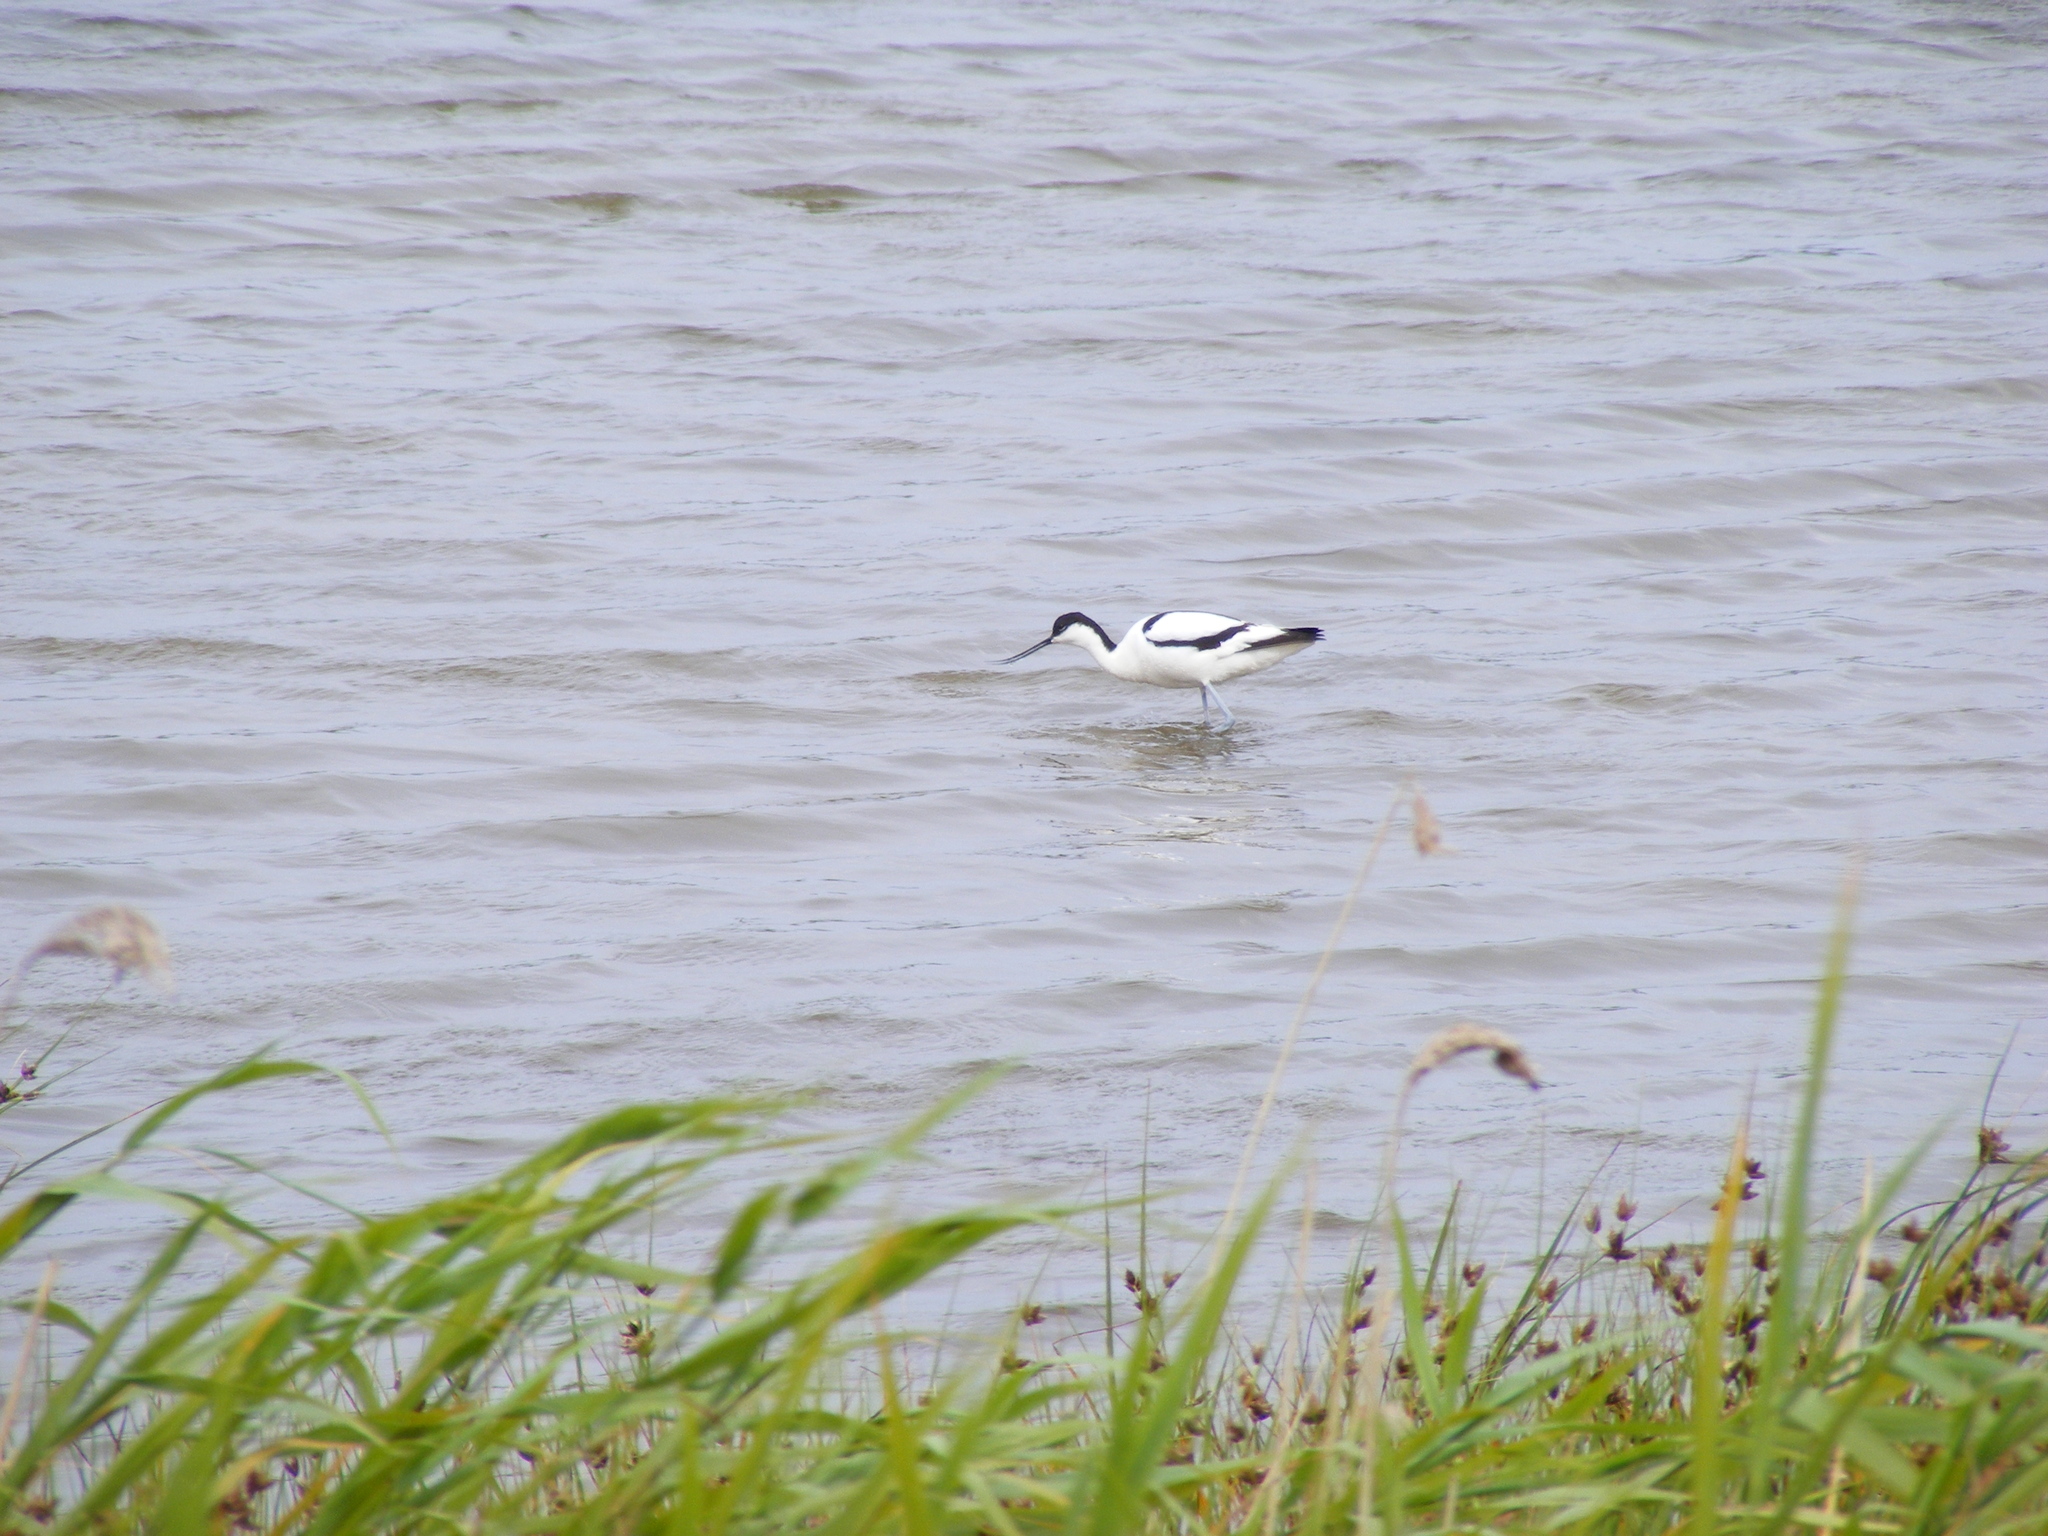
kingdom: Animalia
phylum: Chordata
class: Aves
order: Charadriiformes
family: Recurvirostridae
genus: Recurvirostra
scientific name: Recurvirostra avosetta
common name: Pied avocet
